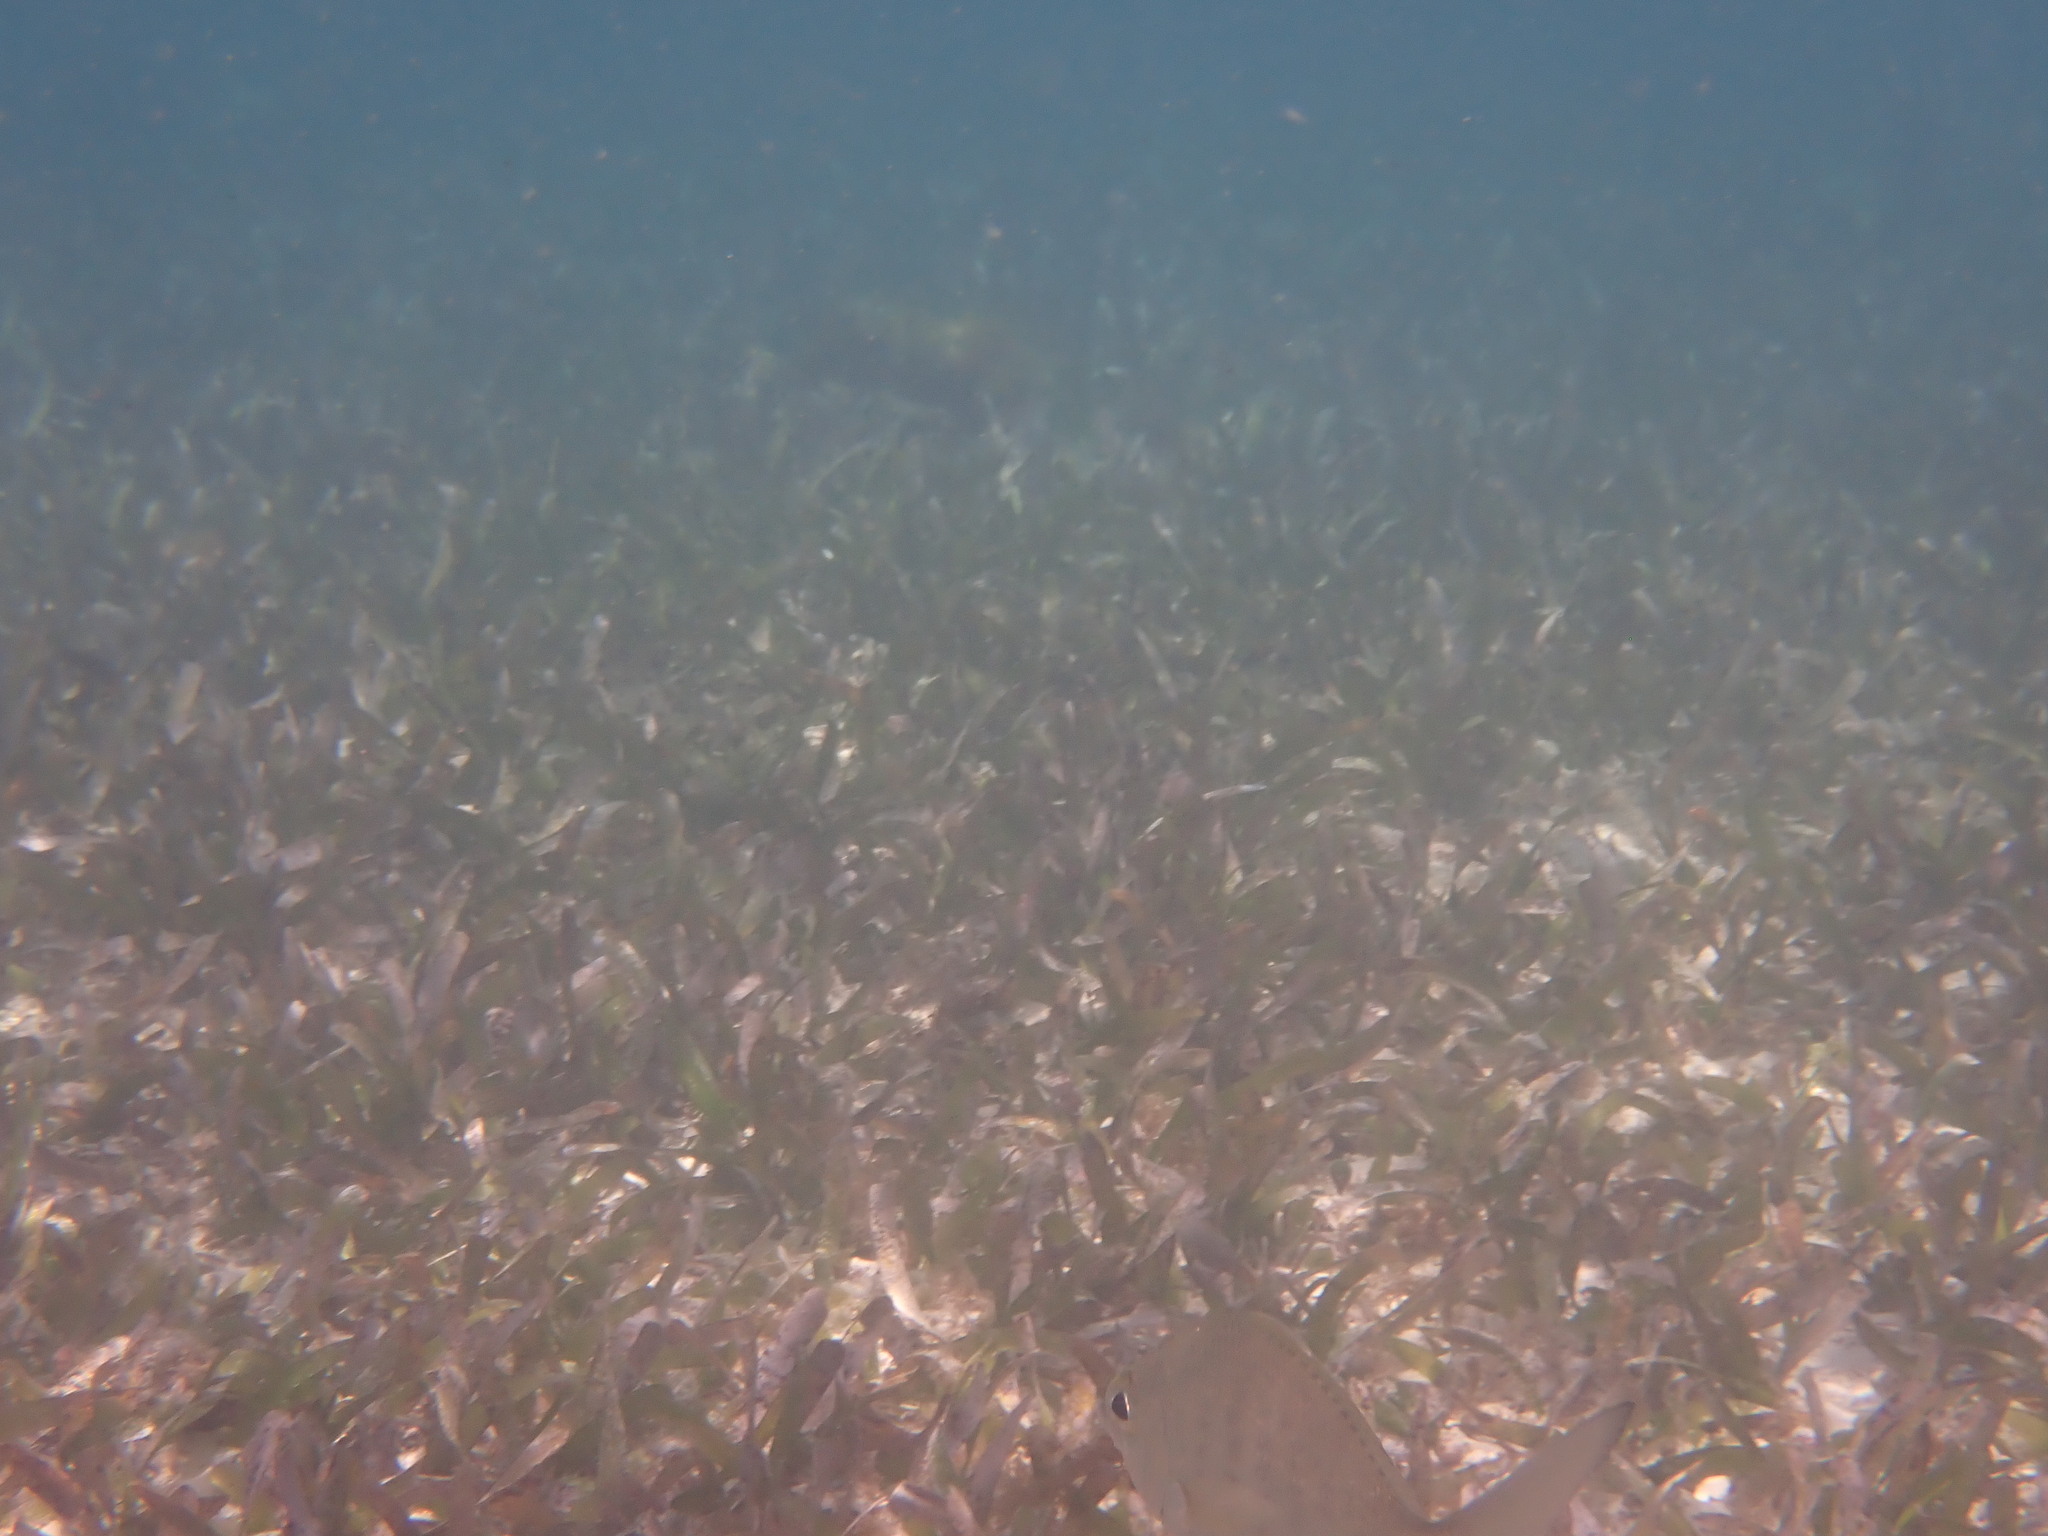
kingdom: Animalia
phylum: Chordata
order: Perciformes
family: Gerreidae
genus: Gerres
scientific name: Gerres cinereus
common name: Hedow
